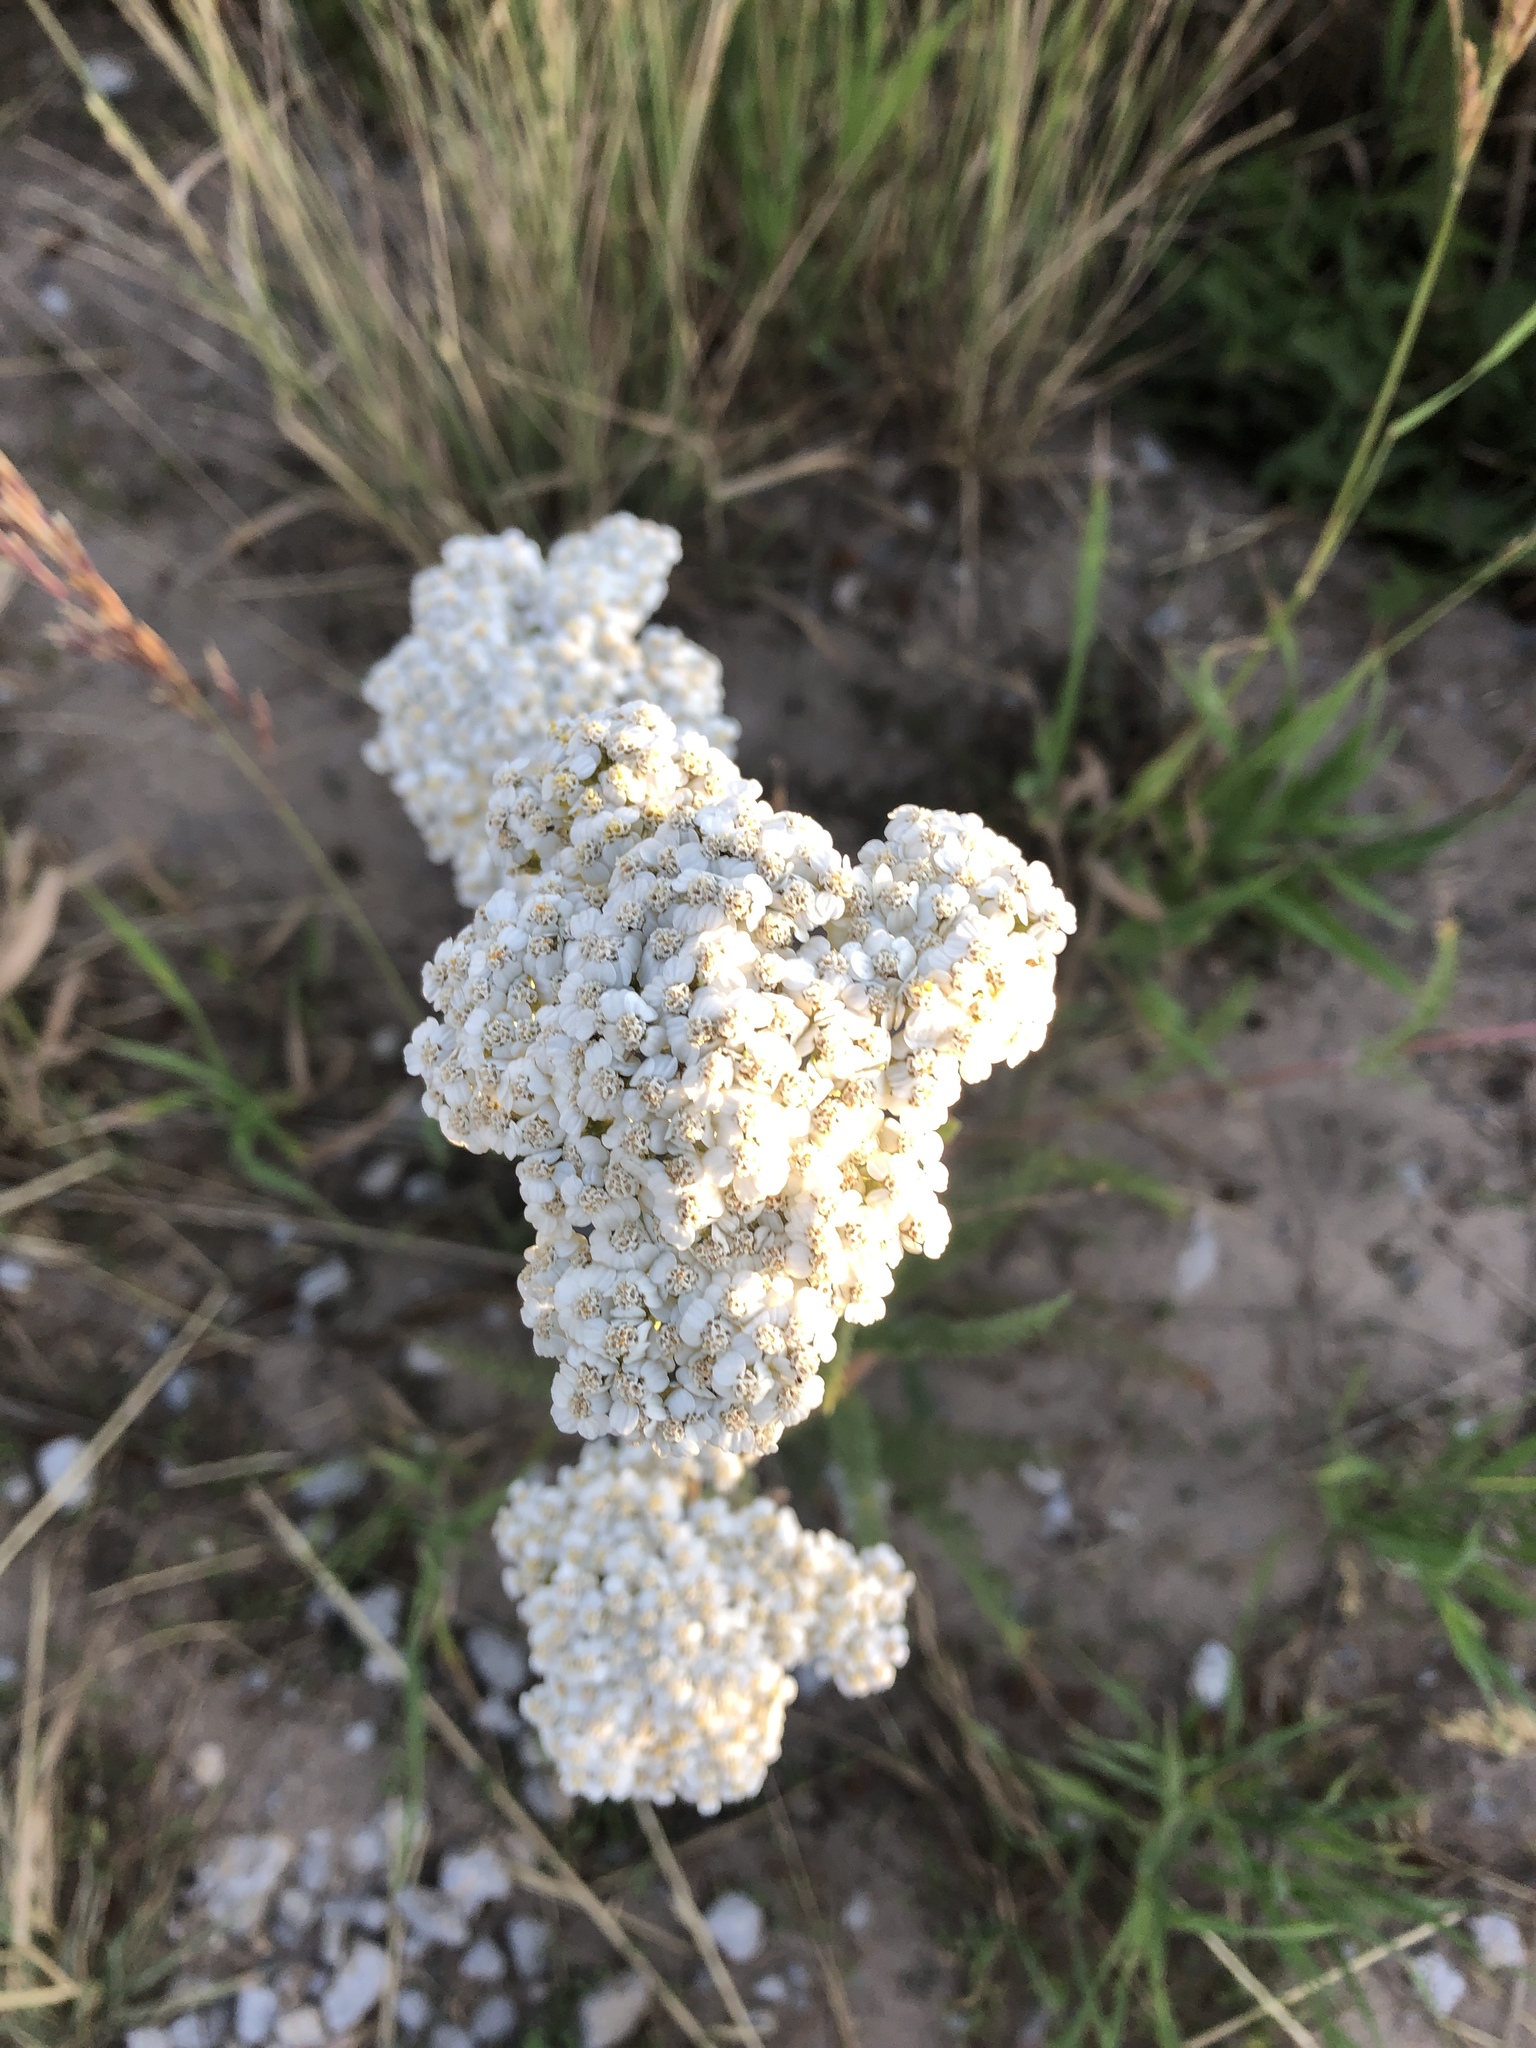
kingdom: Plantae
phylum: Tracheophyta
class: Magnoliopsida
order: Asterales
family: Asteraceae
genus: Achillea
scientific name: Achillea millefolium
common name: Yarrow
